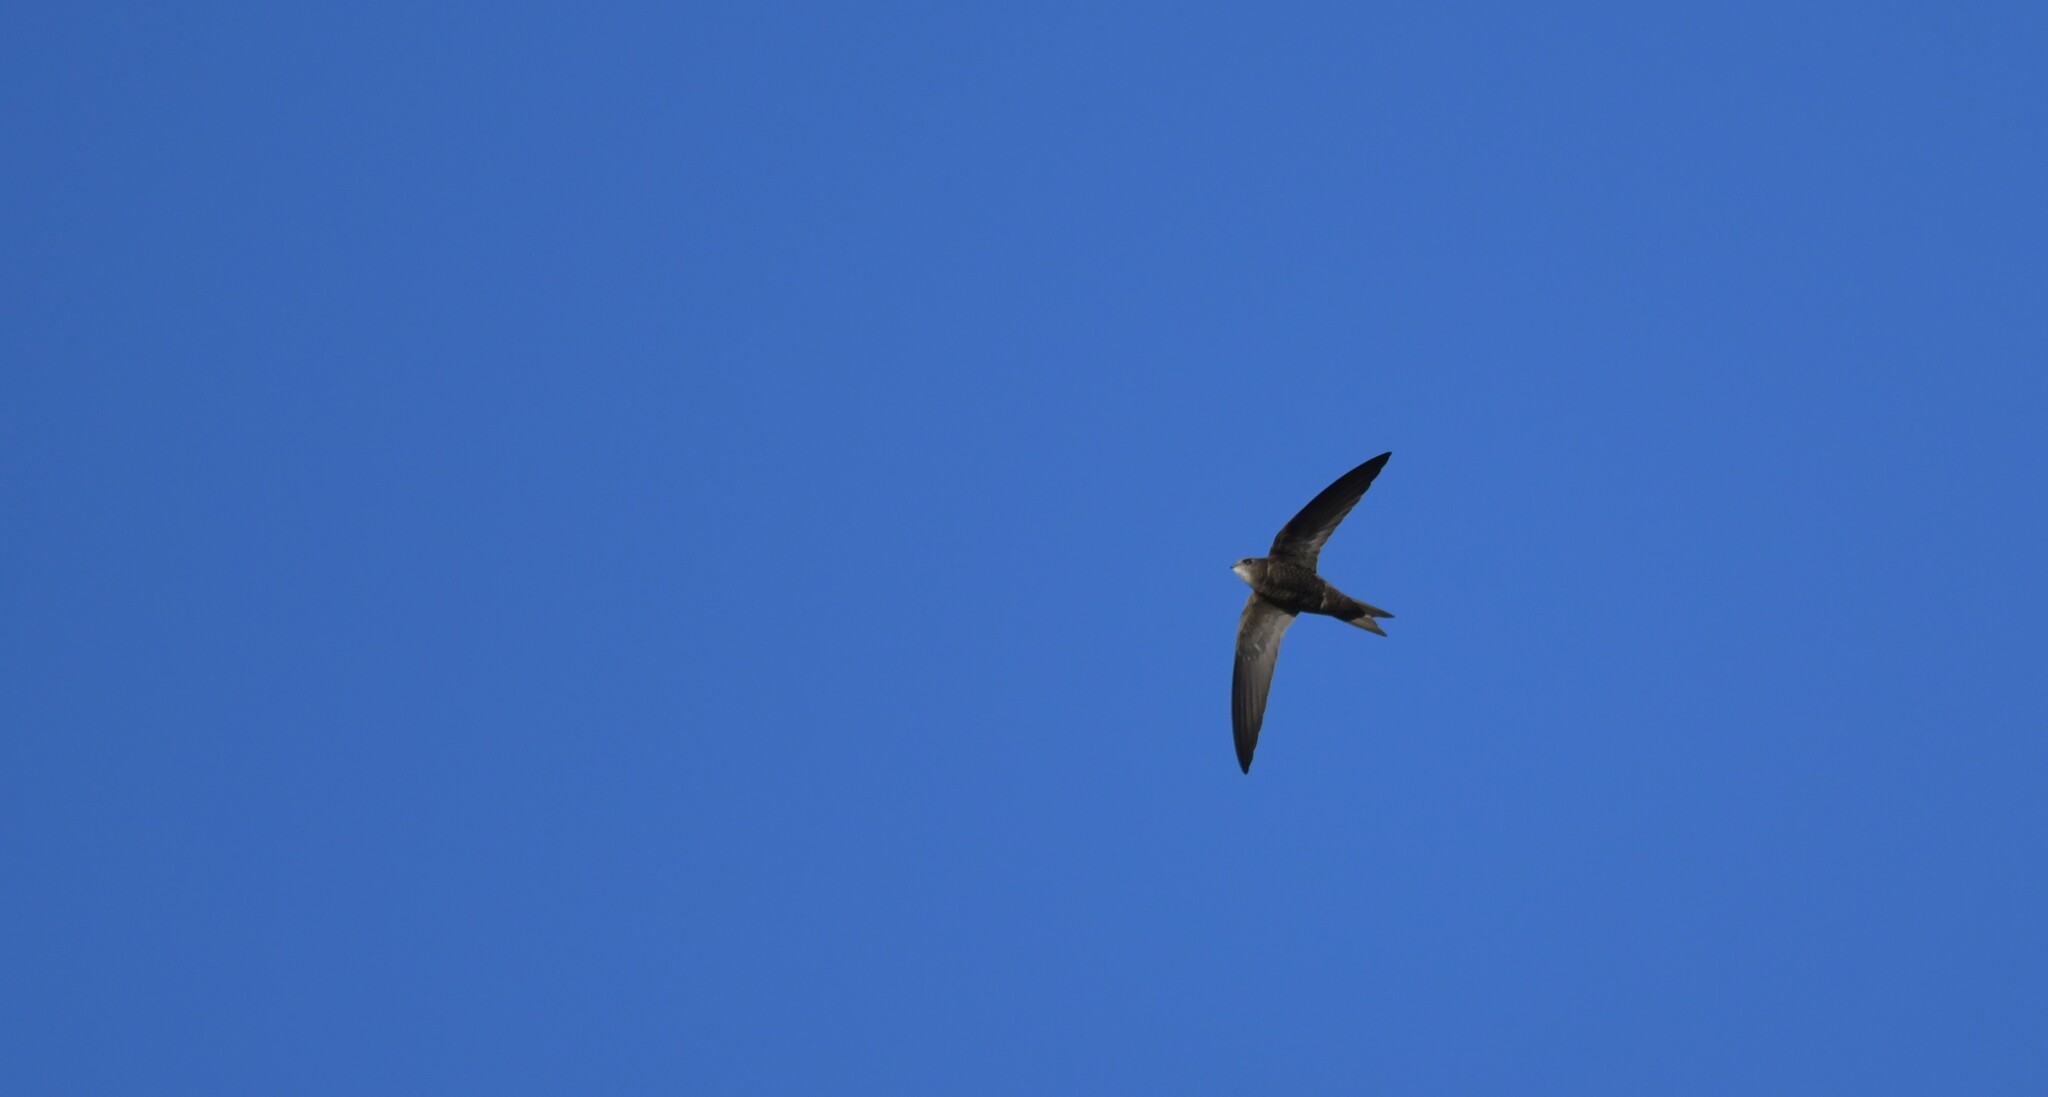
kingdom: Animalia
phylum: Chordata
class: Aves
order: Apodiformes
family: Apodidae
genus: Apus
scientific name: Apus pallidus
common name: Pallid swift
